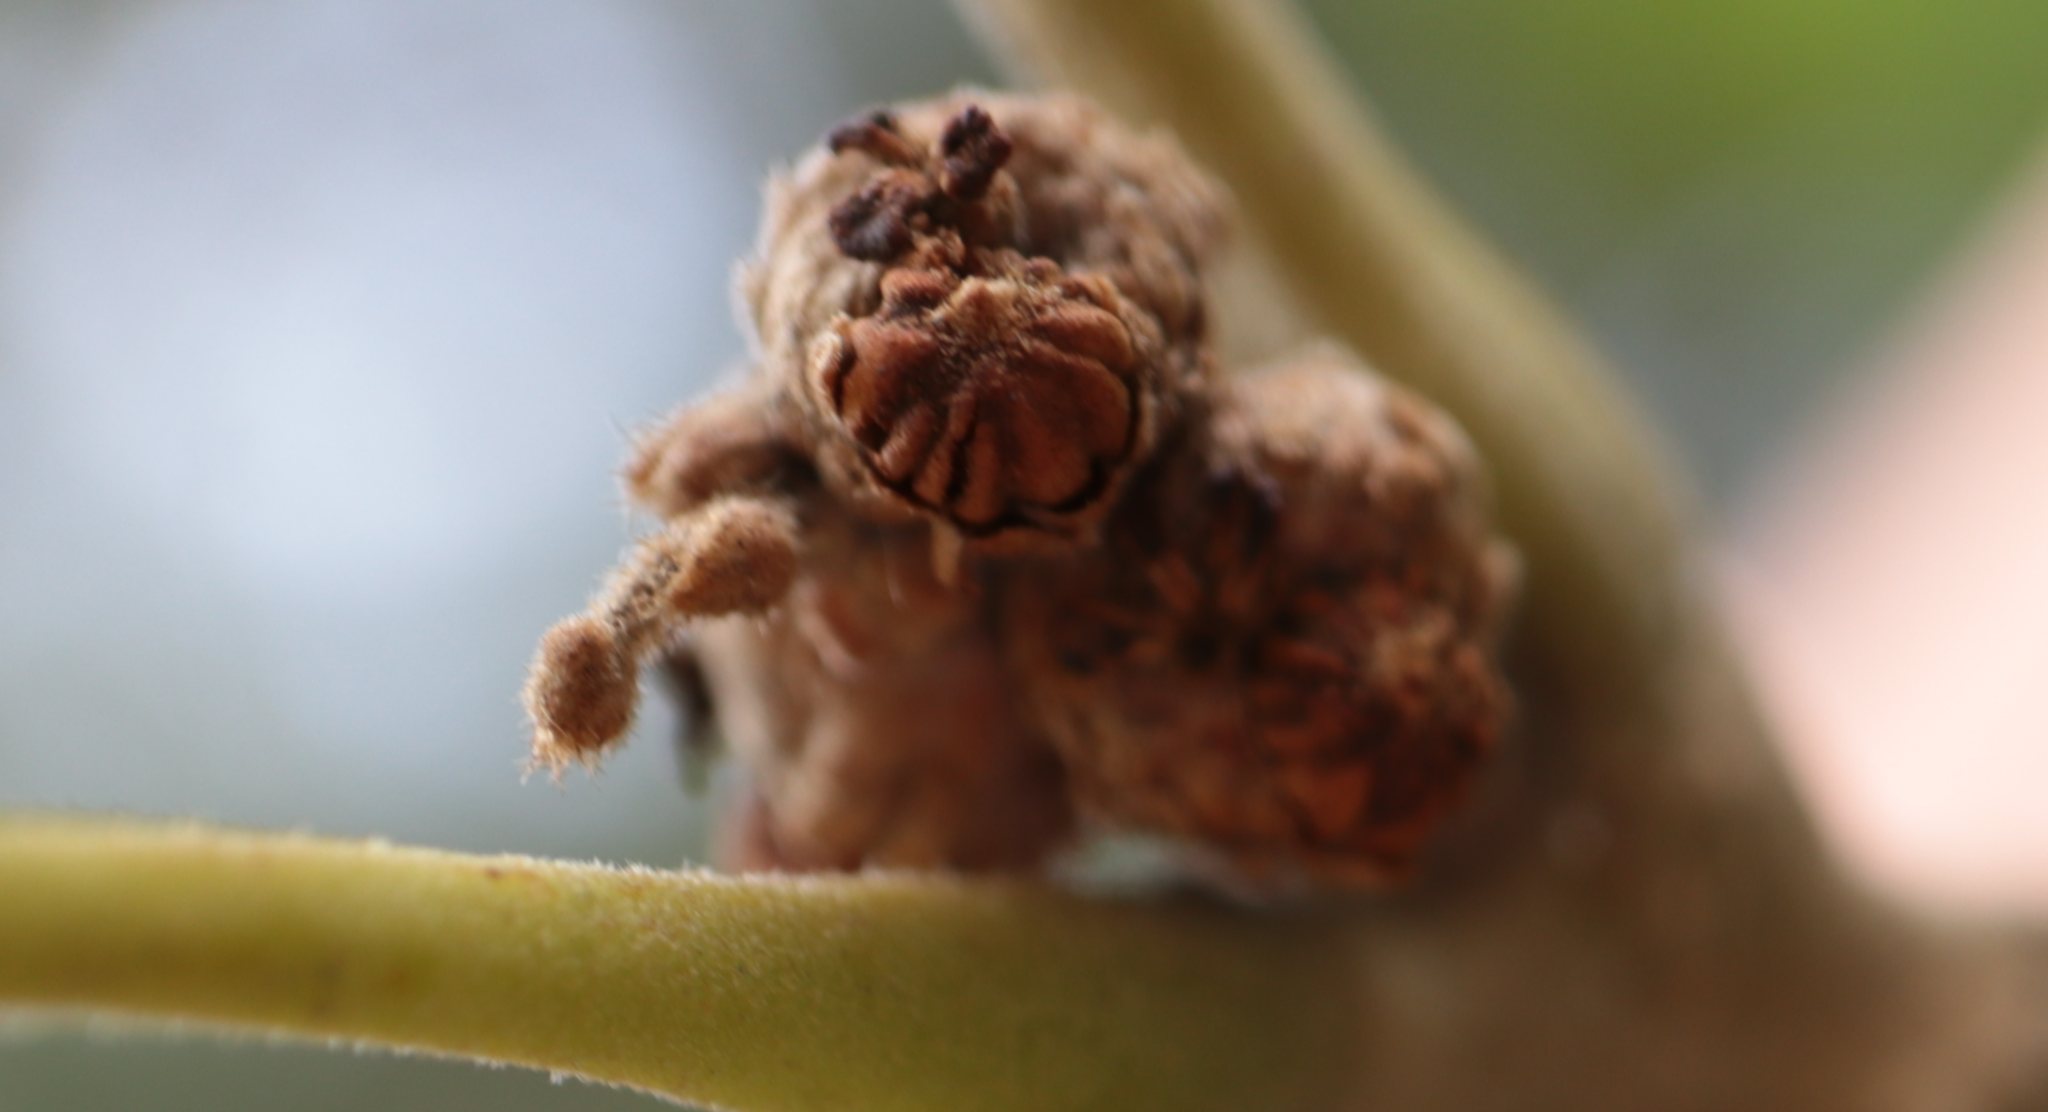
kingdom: Animalia
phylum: Arthropoda
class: Insecta
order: Hymenoptera
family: Cynipidae
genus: Callirhytis
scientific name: Callirhytis
